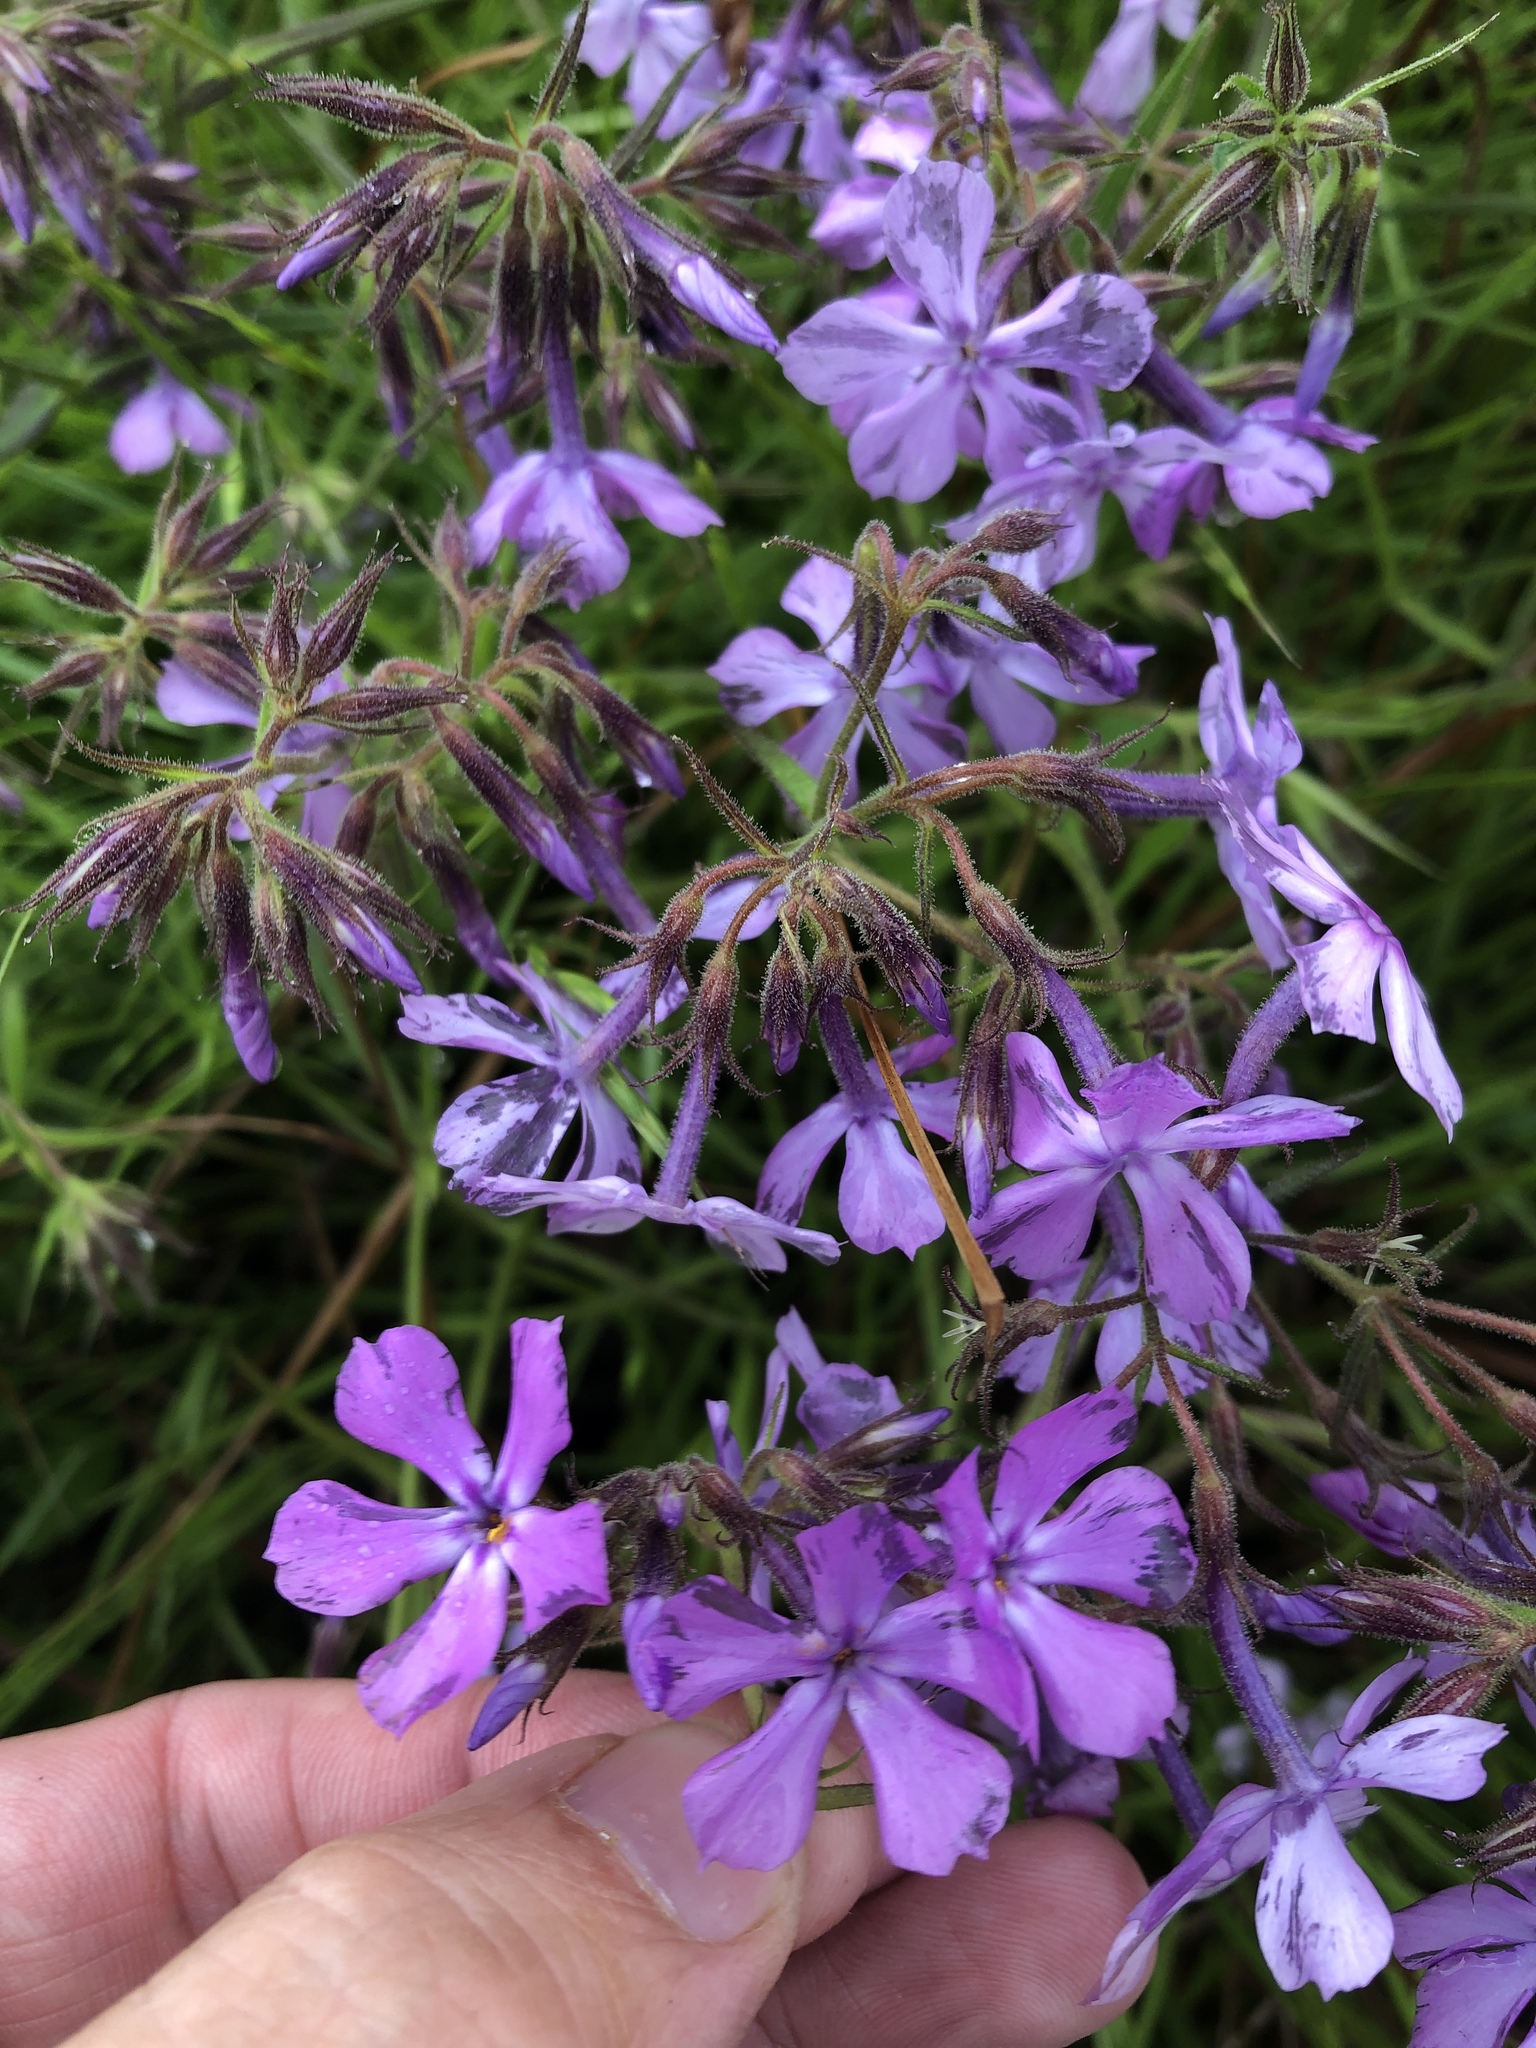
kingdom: Plantae
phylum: Tracheophyta
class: Magnoliopsida
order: Ericales
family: Polemoniaceae
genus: Phlox
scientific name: Phlox pilosa
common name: Prairie phlox
